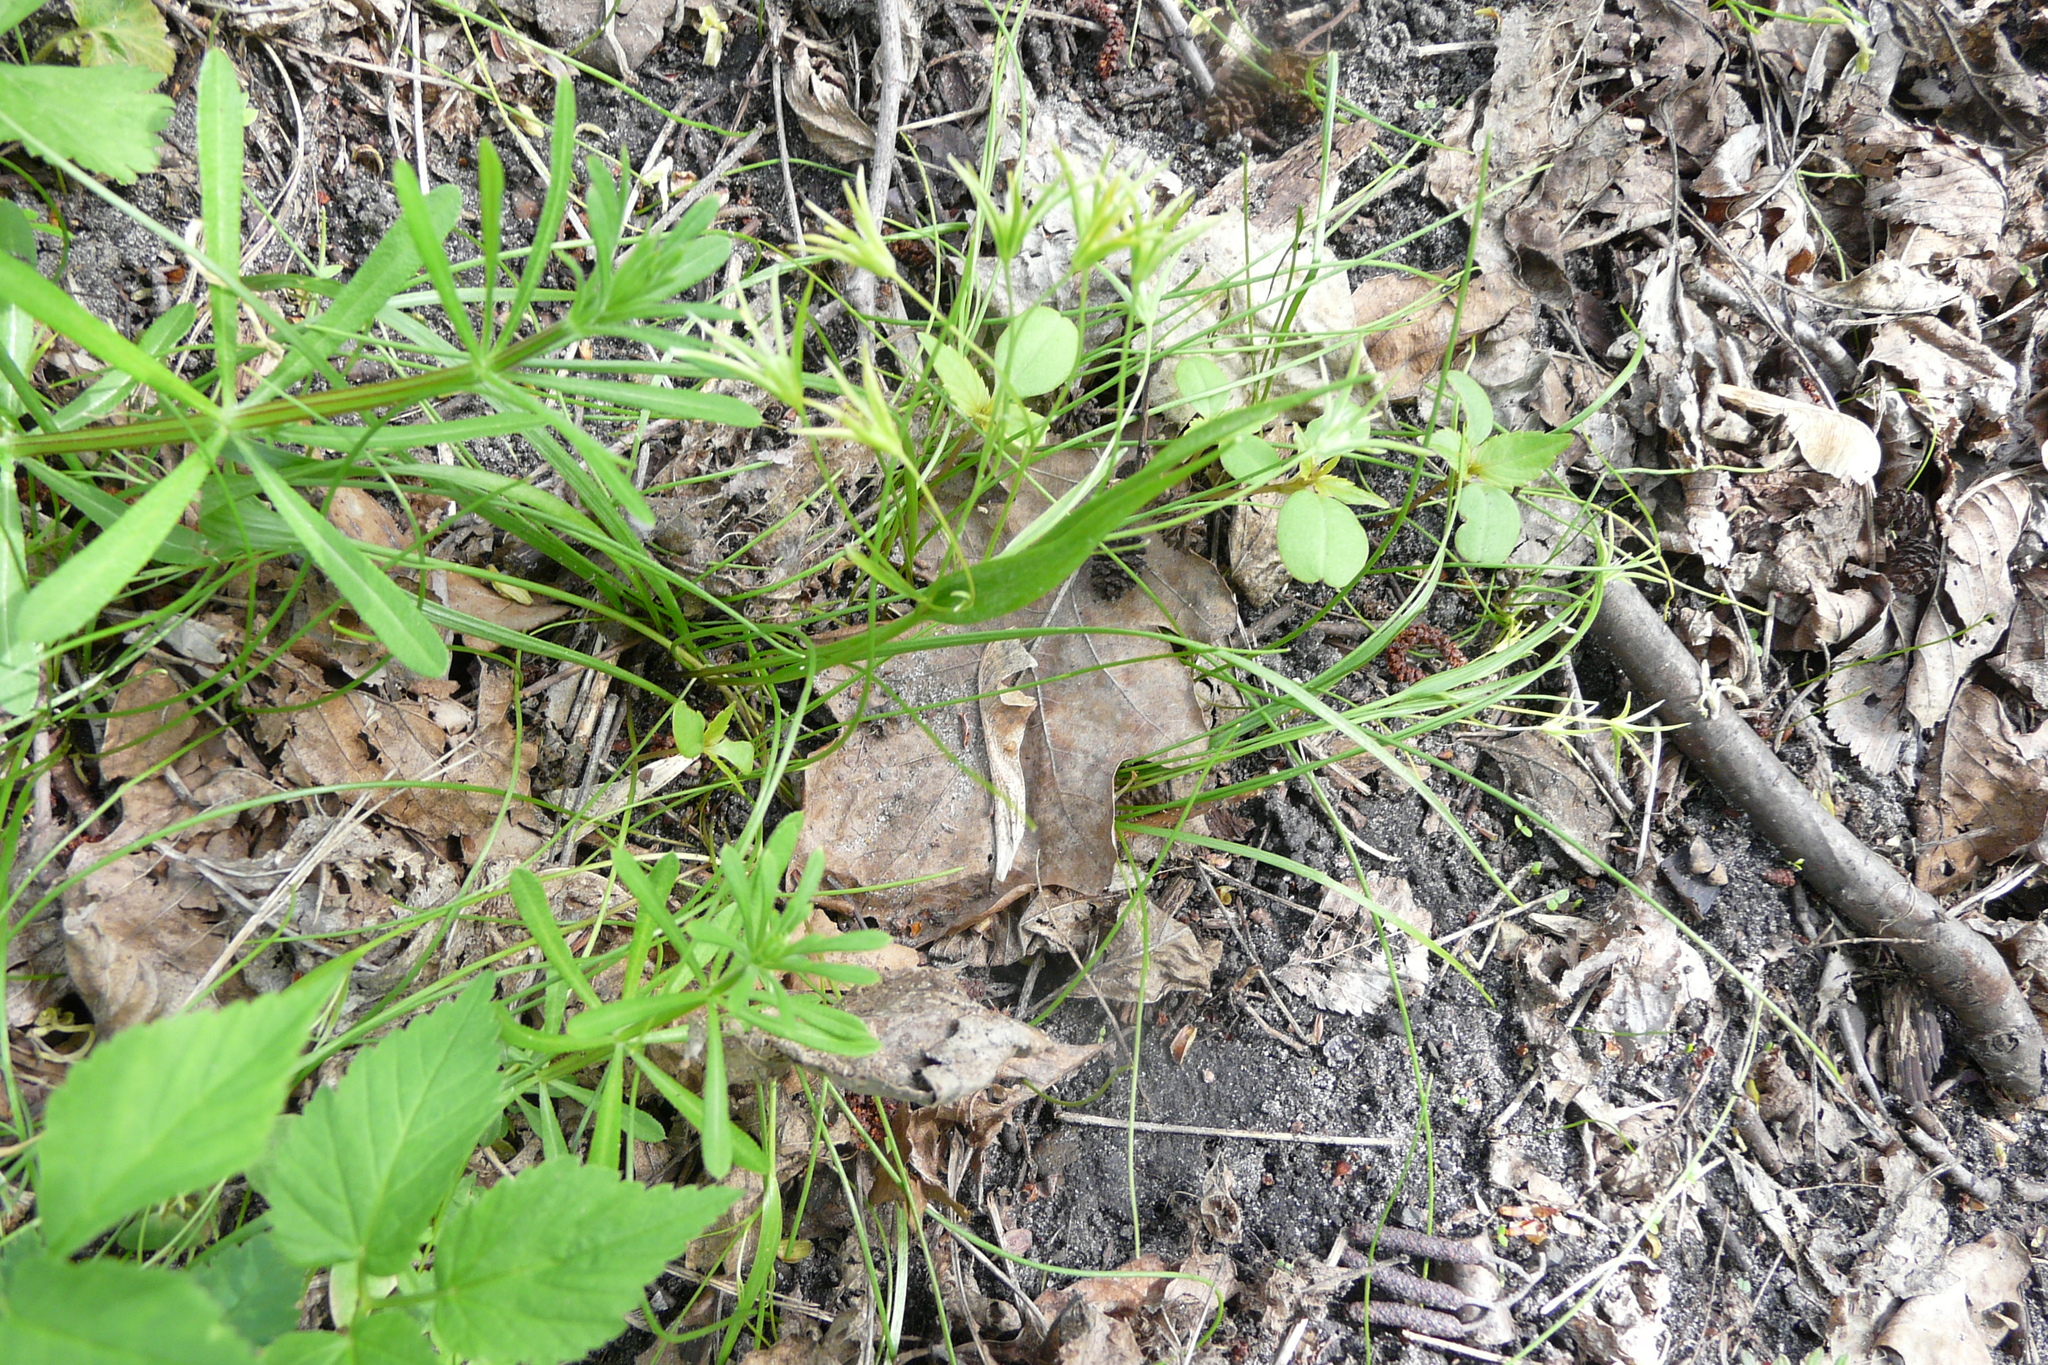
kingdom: Plantae
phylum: Tracheophyta
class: Liliopsida
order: Liliales
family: Liliaceae
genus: Gagea
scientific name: Gagea minima
